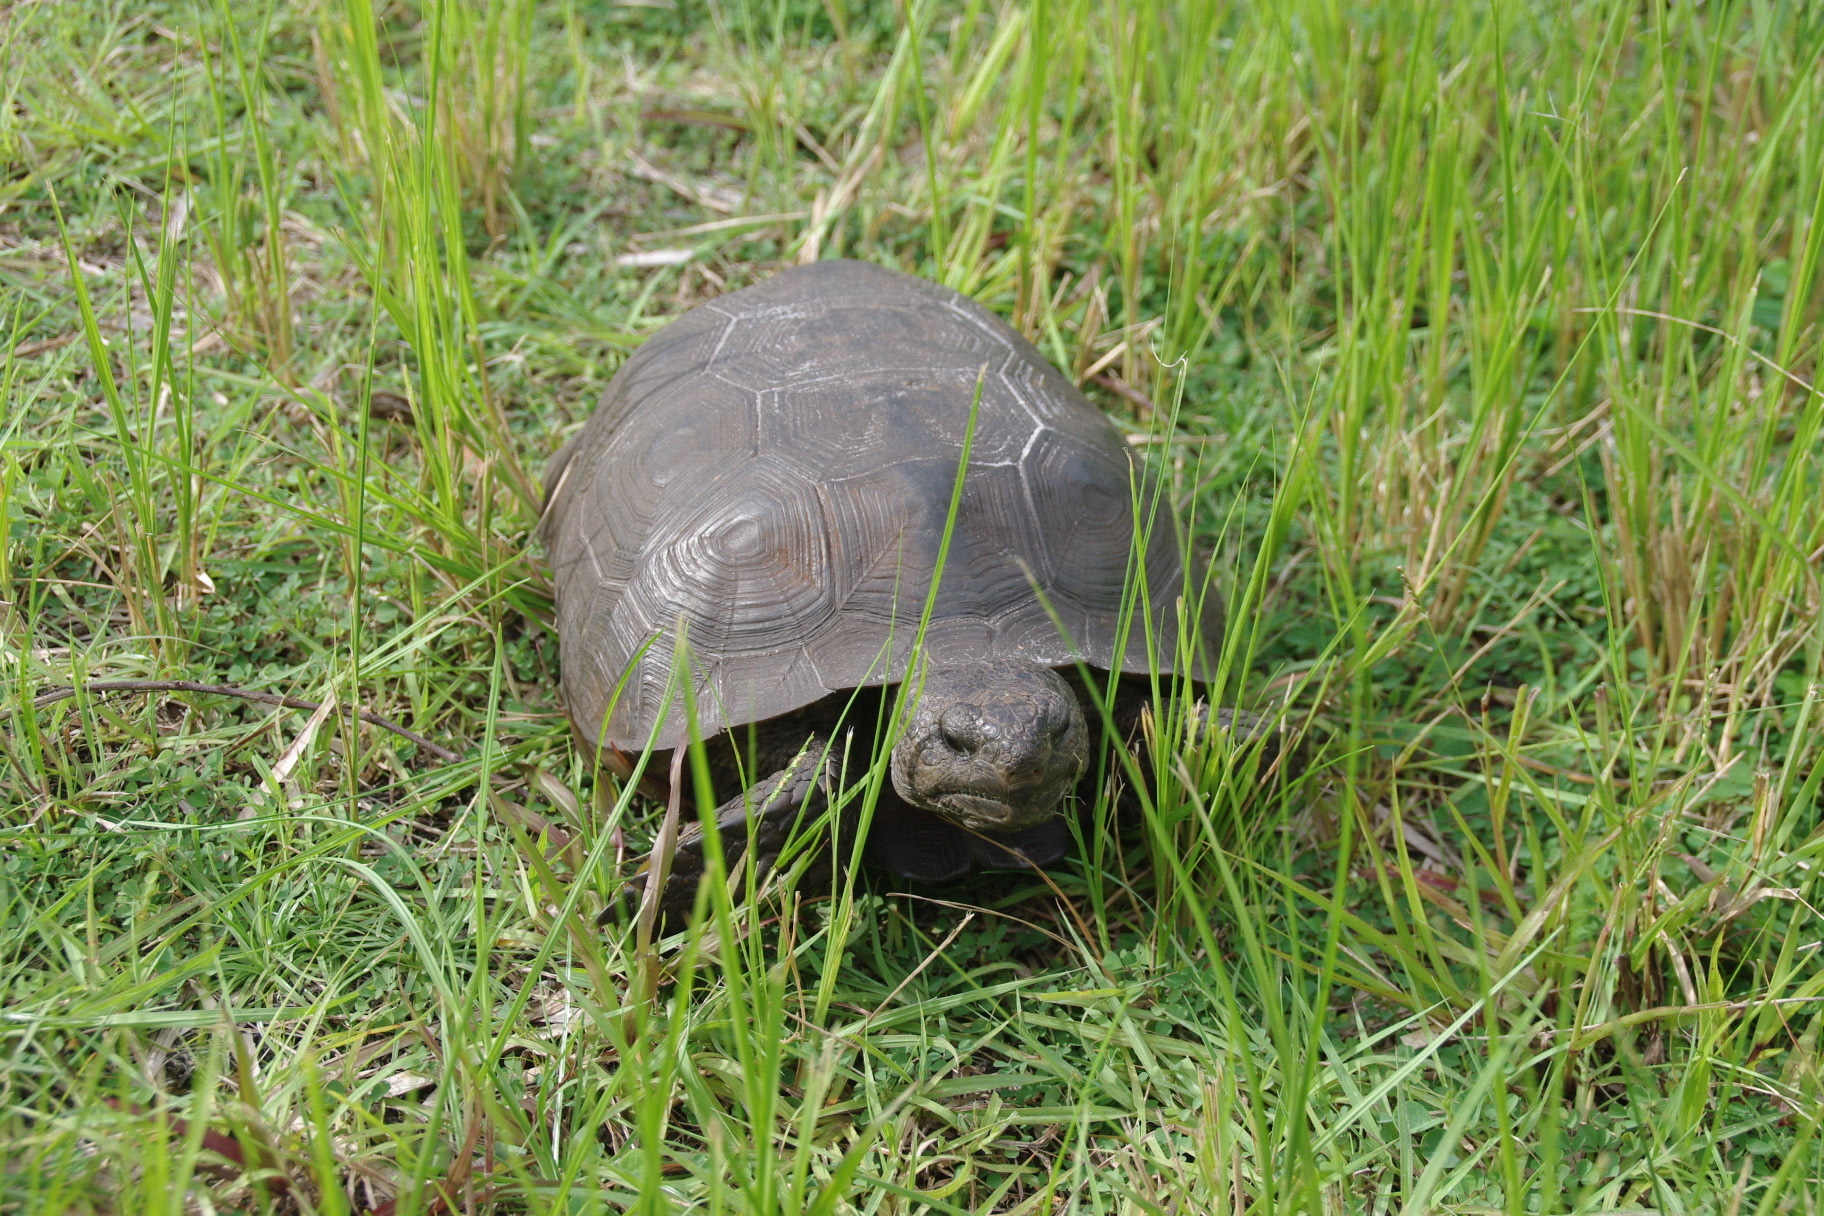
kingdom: Animalia
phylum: Chordata
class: Testudines
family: Testudinidae
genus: Gopherus
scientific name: Gopherus polyphemus
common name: Florida gopher tortoise
